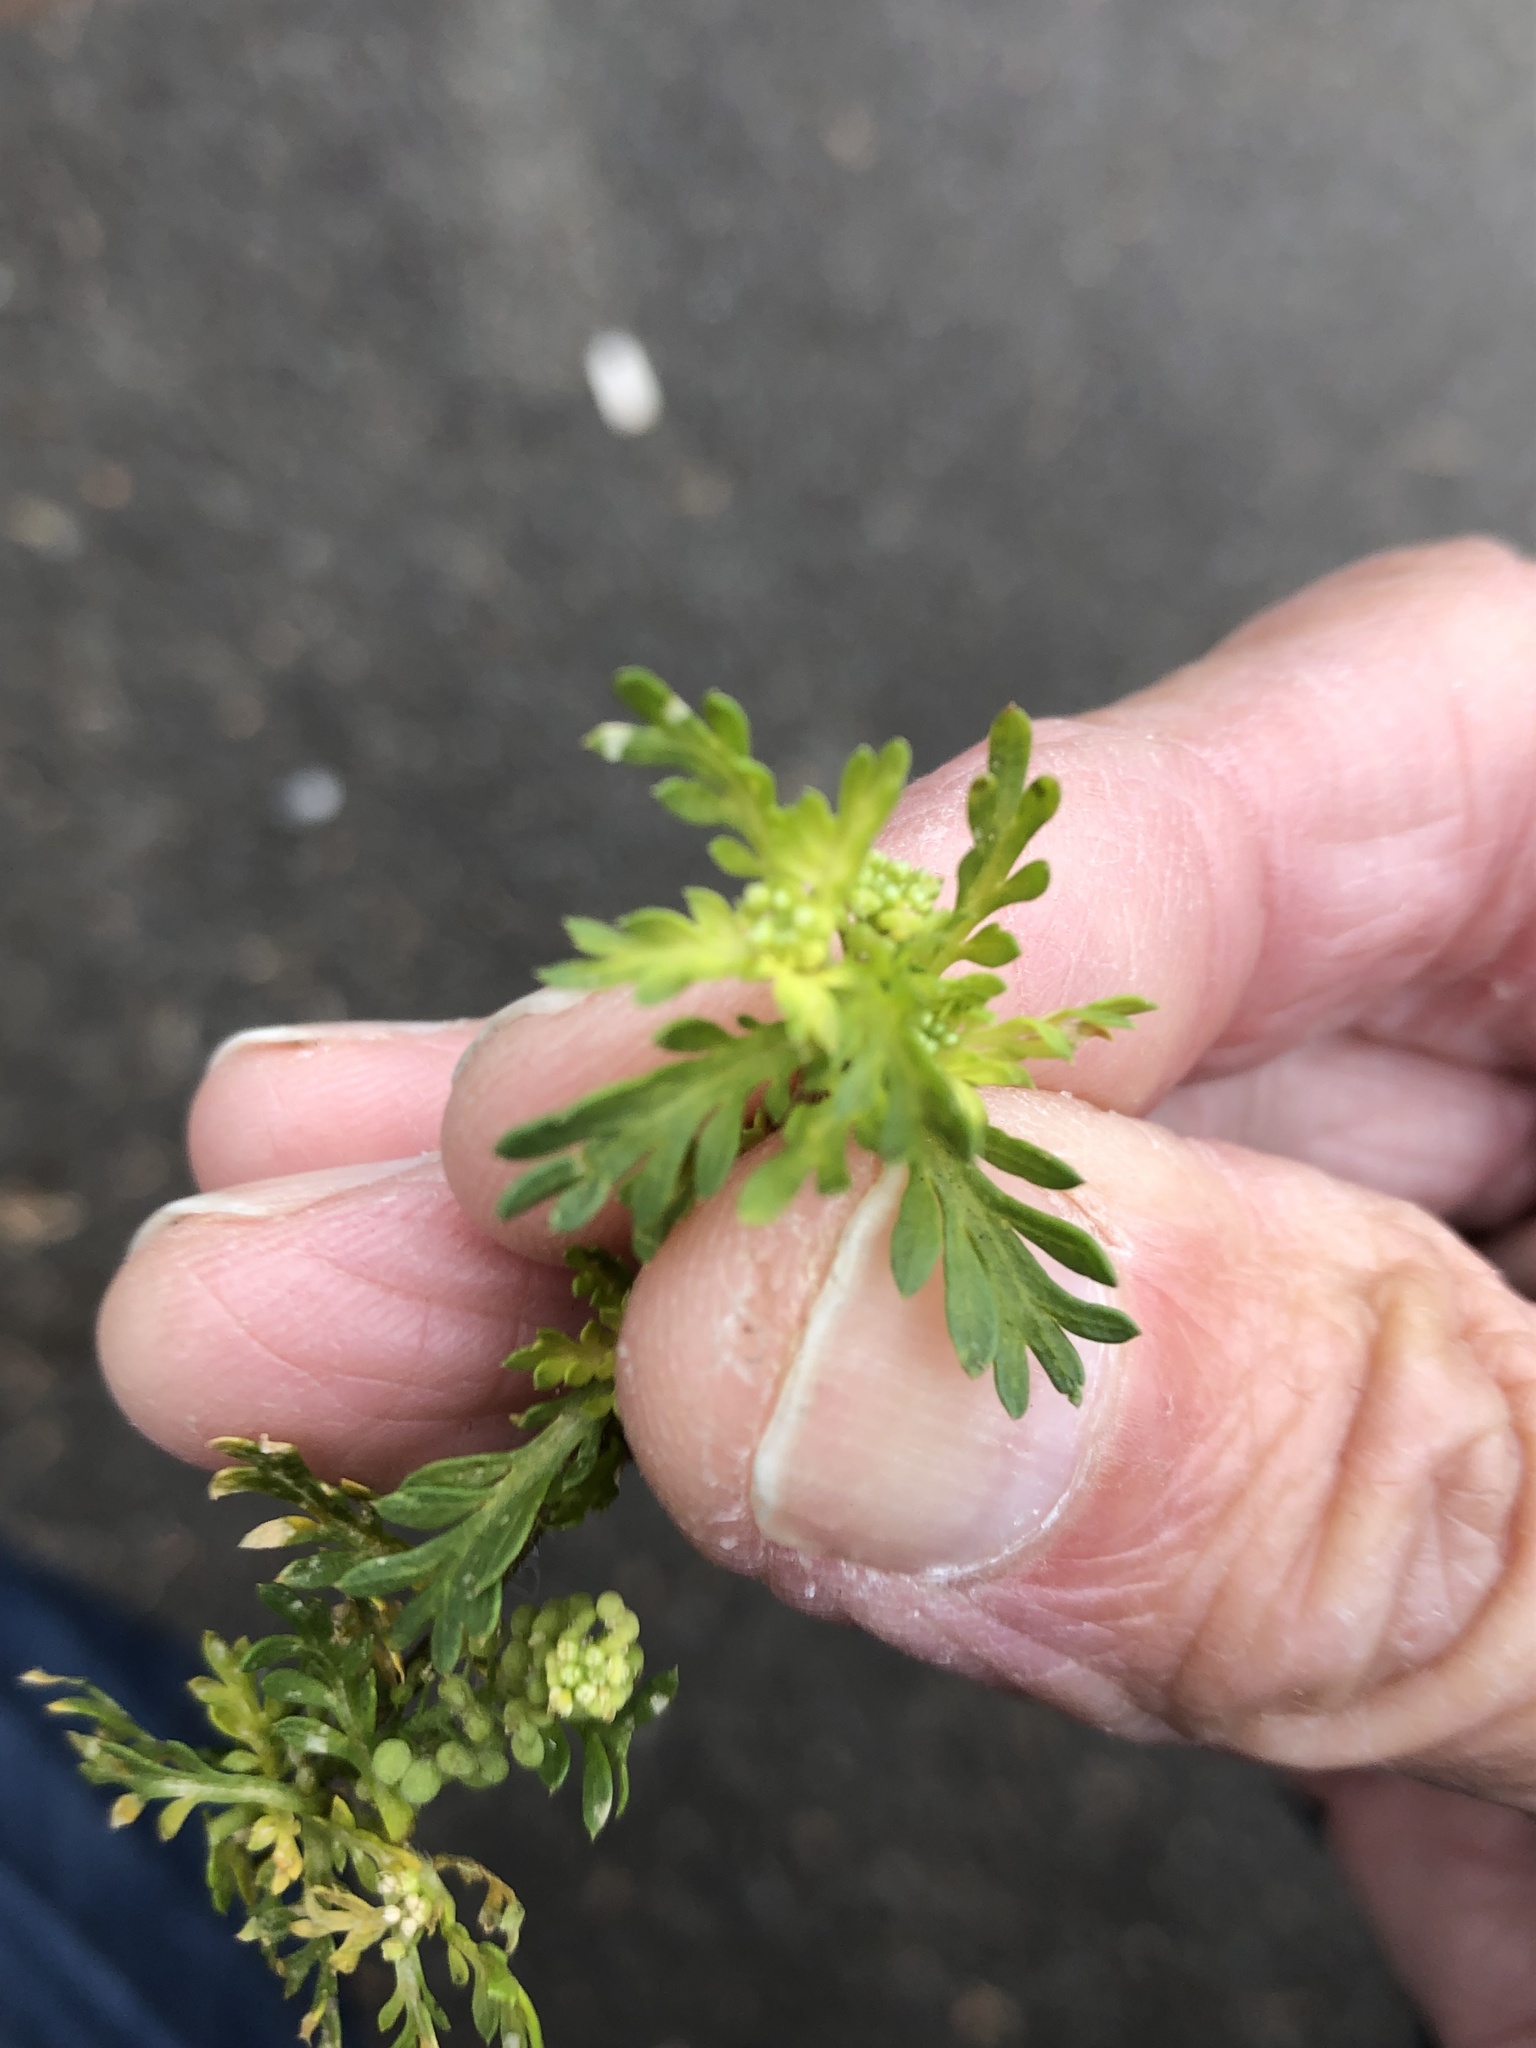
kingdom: Plantae
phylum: Tracheophyta
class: Magnoliopsida
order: Brassicales
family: Brassicaceae
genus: Lepidium
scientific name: Lepidium didymum
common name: Lesser swinecress
